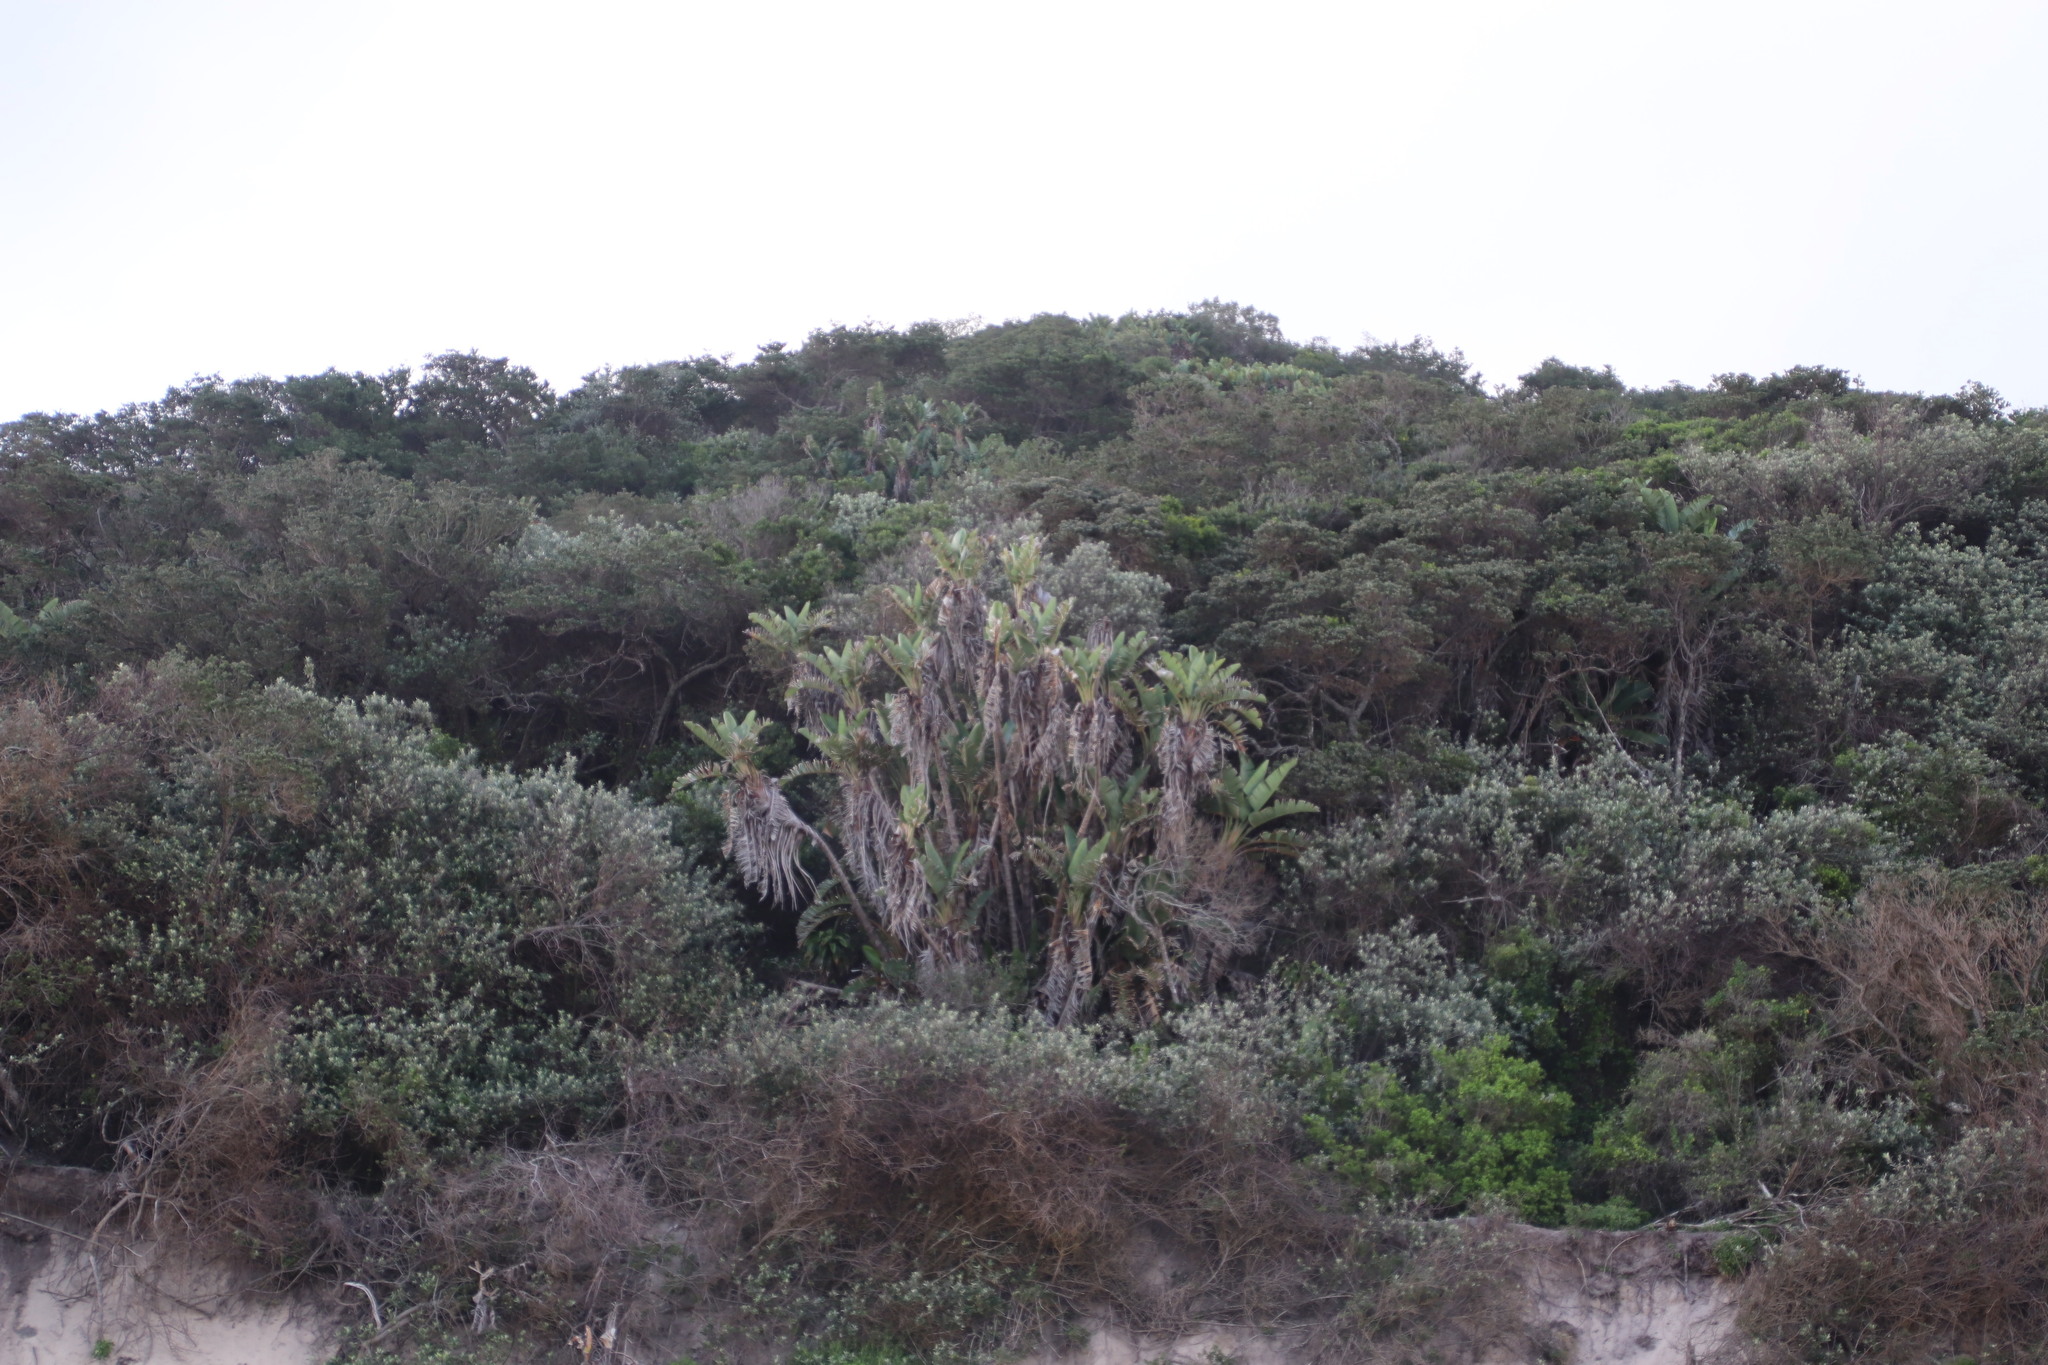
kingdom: Plantae
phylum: Tracheophyta
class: Liliopsida
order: Zingiberales
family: Strelitziaceae
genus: Strelitzia
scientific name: Strelitzia nicolai
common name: Bird-of-paradise tree
